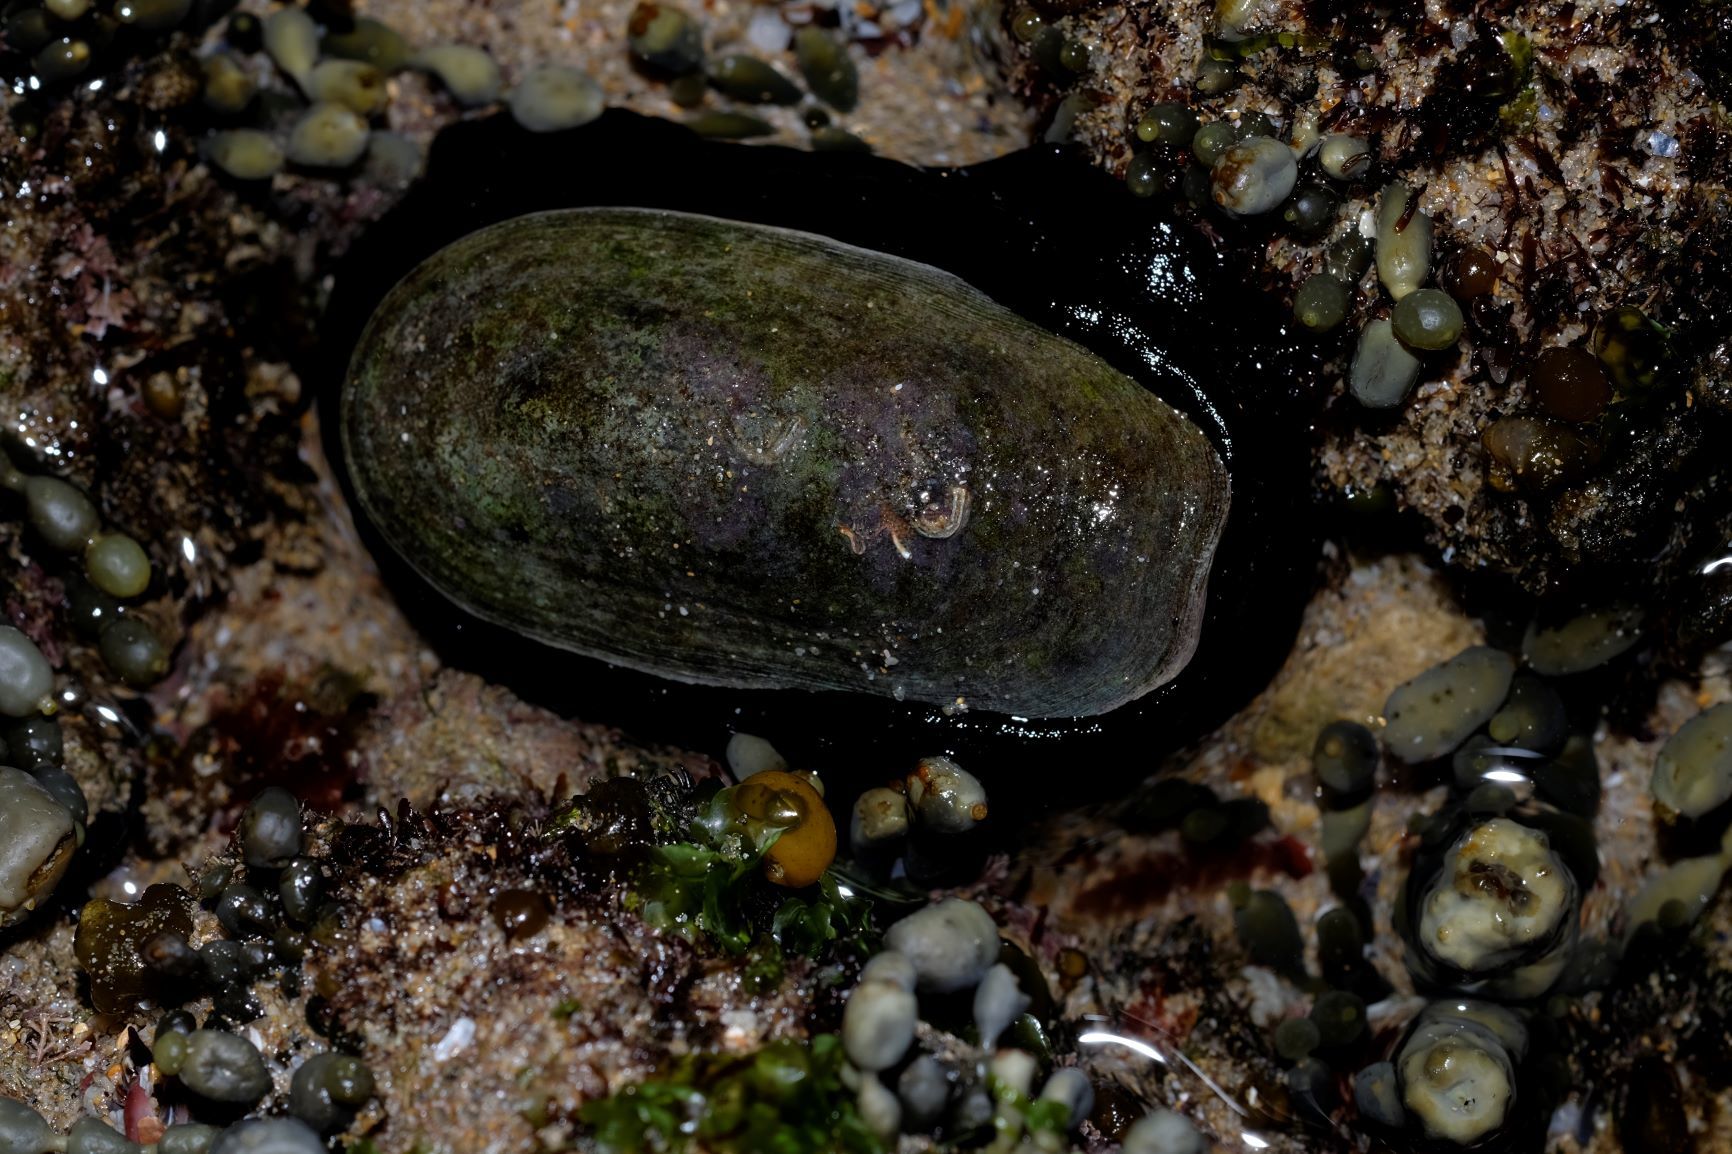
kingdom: Animalia
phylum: Mollusca
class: Gastropoda
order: Lepetellida
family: Fissurellidae
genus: Scutus
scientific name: Scutus antipodes
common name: Duckbill shell
